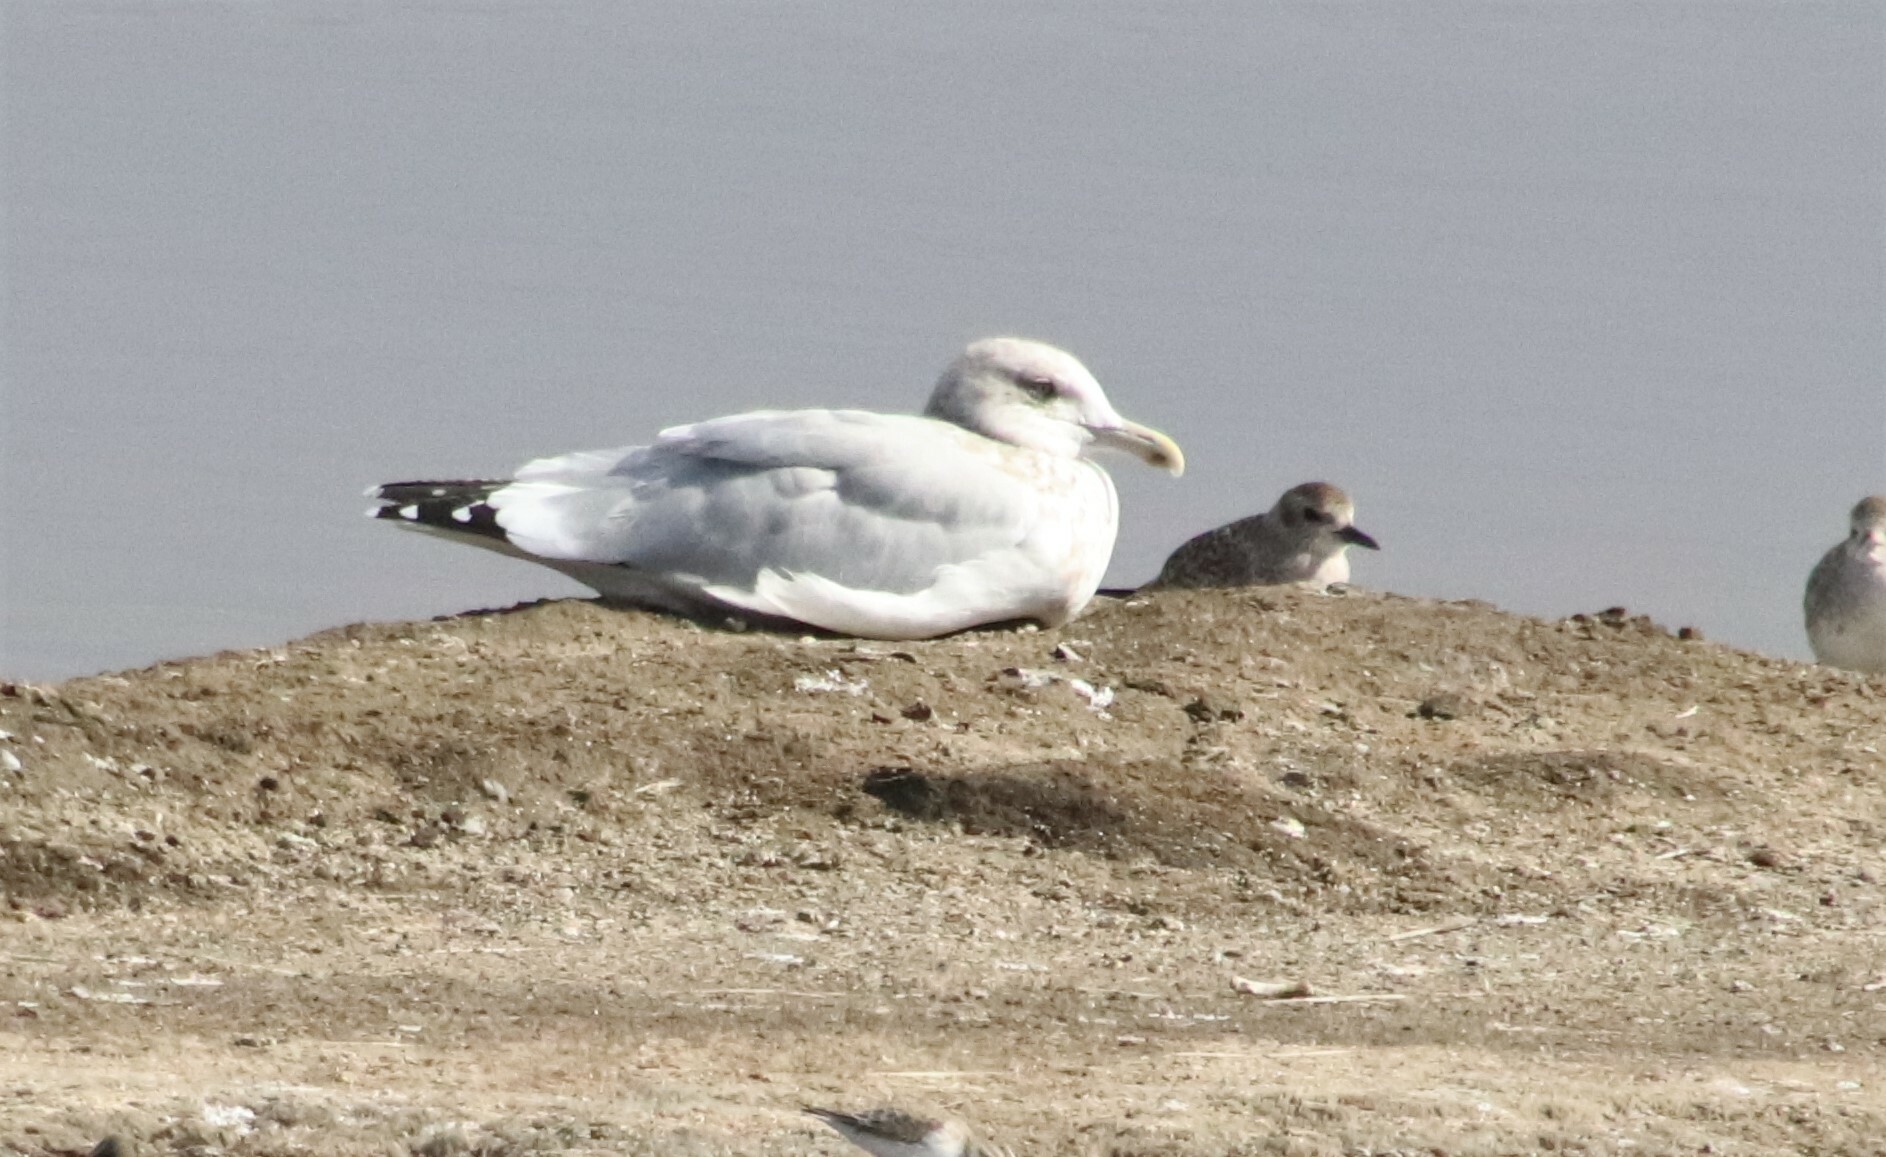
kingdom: Animalia
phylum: Chordata
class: Aves
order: Charadriiformes
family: Laridae
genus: Larus
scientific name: Larus argentatus
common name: Herring gull
